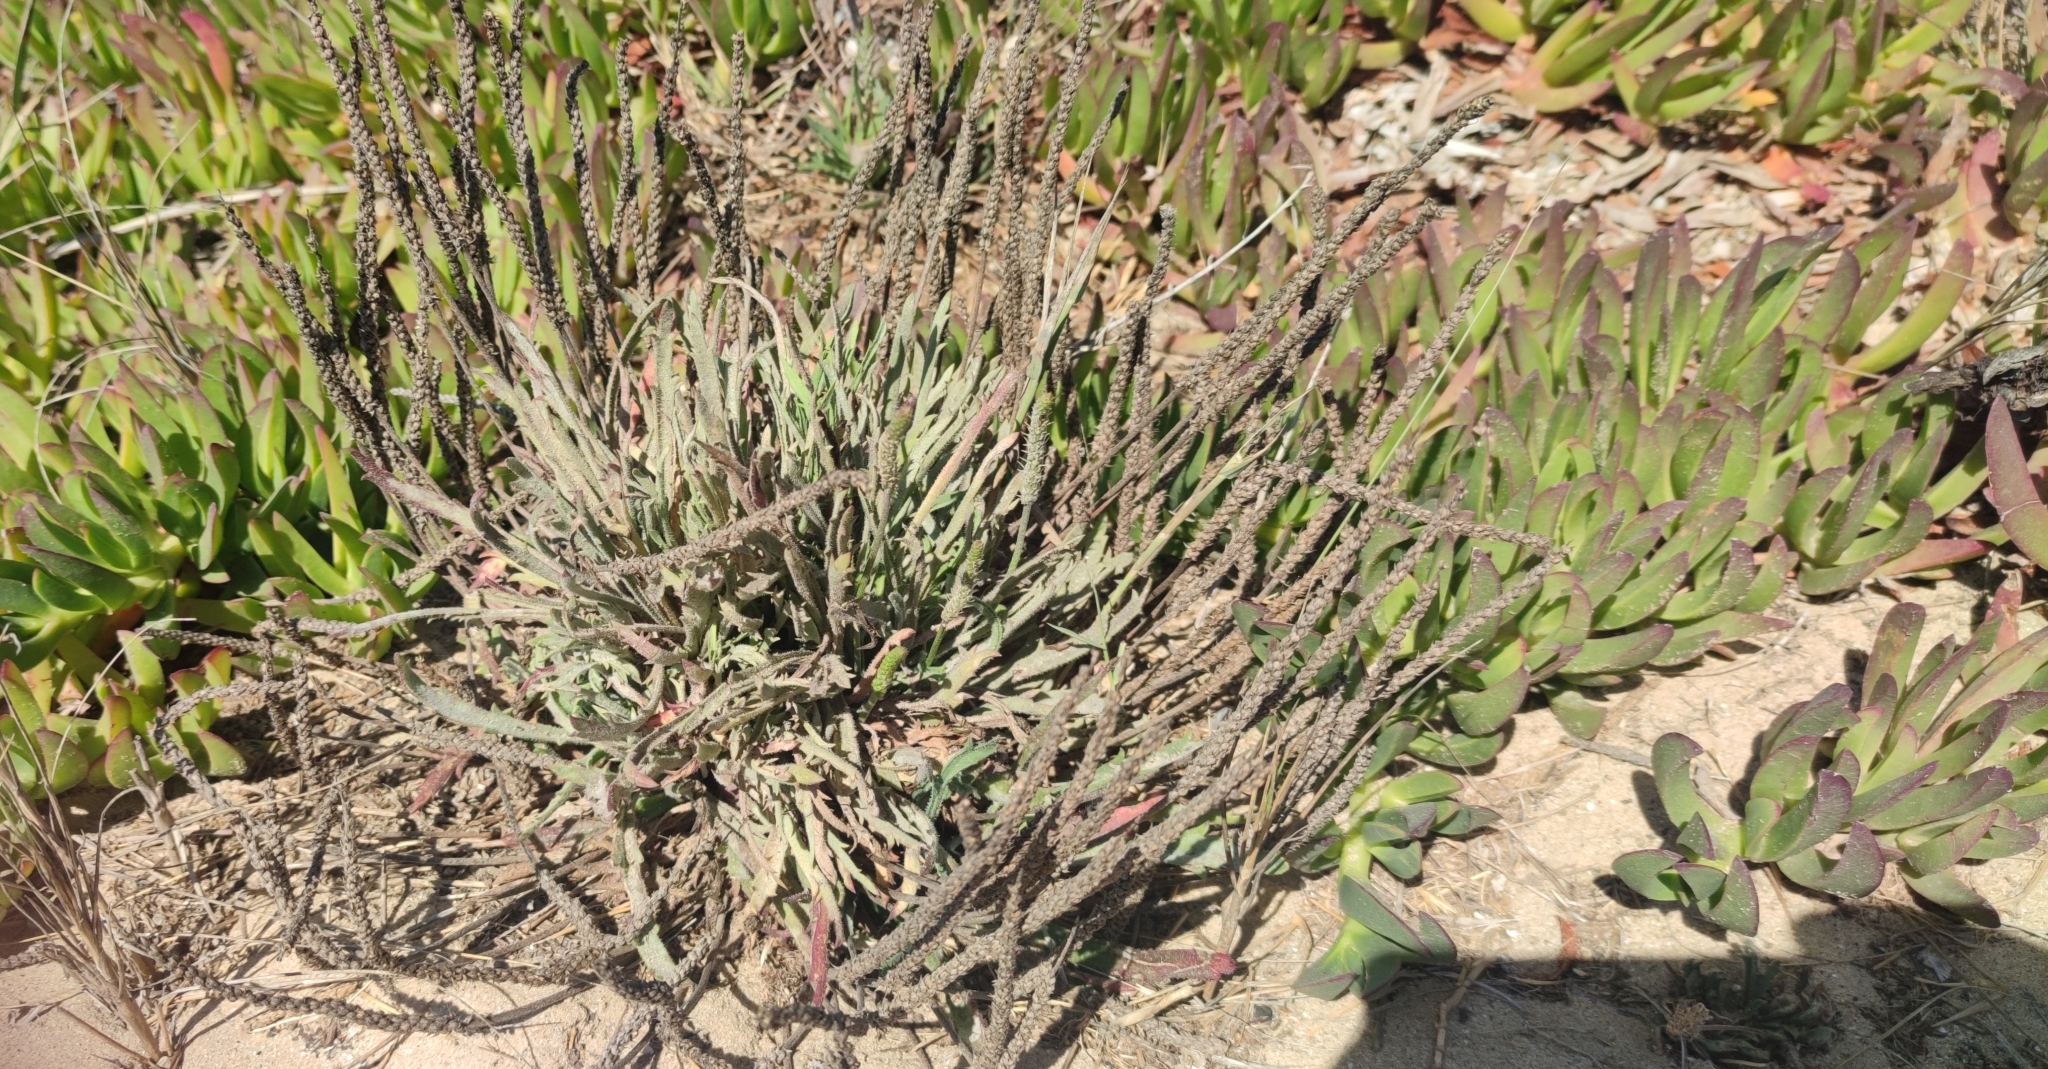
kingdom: Plantae
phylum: Tracheophyta
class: Magnoliopsida
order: Lamiales
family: Plantaginaceae
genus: Plantago
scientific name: Plantago coronopus
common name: Buck's-horn plantain
